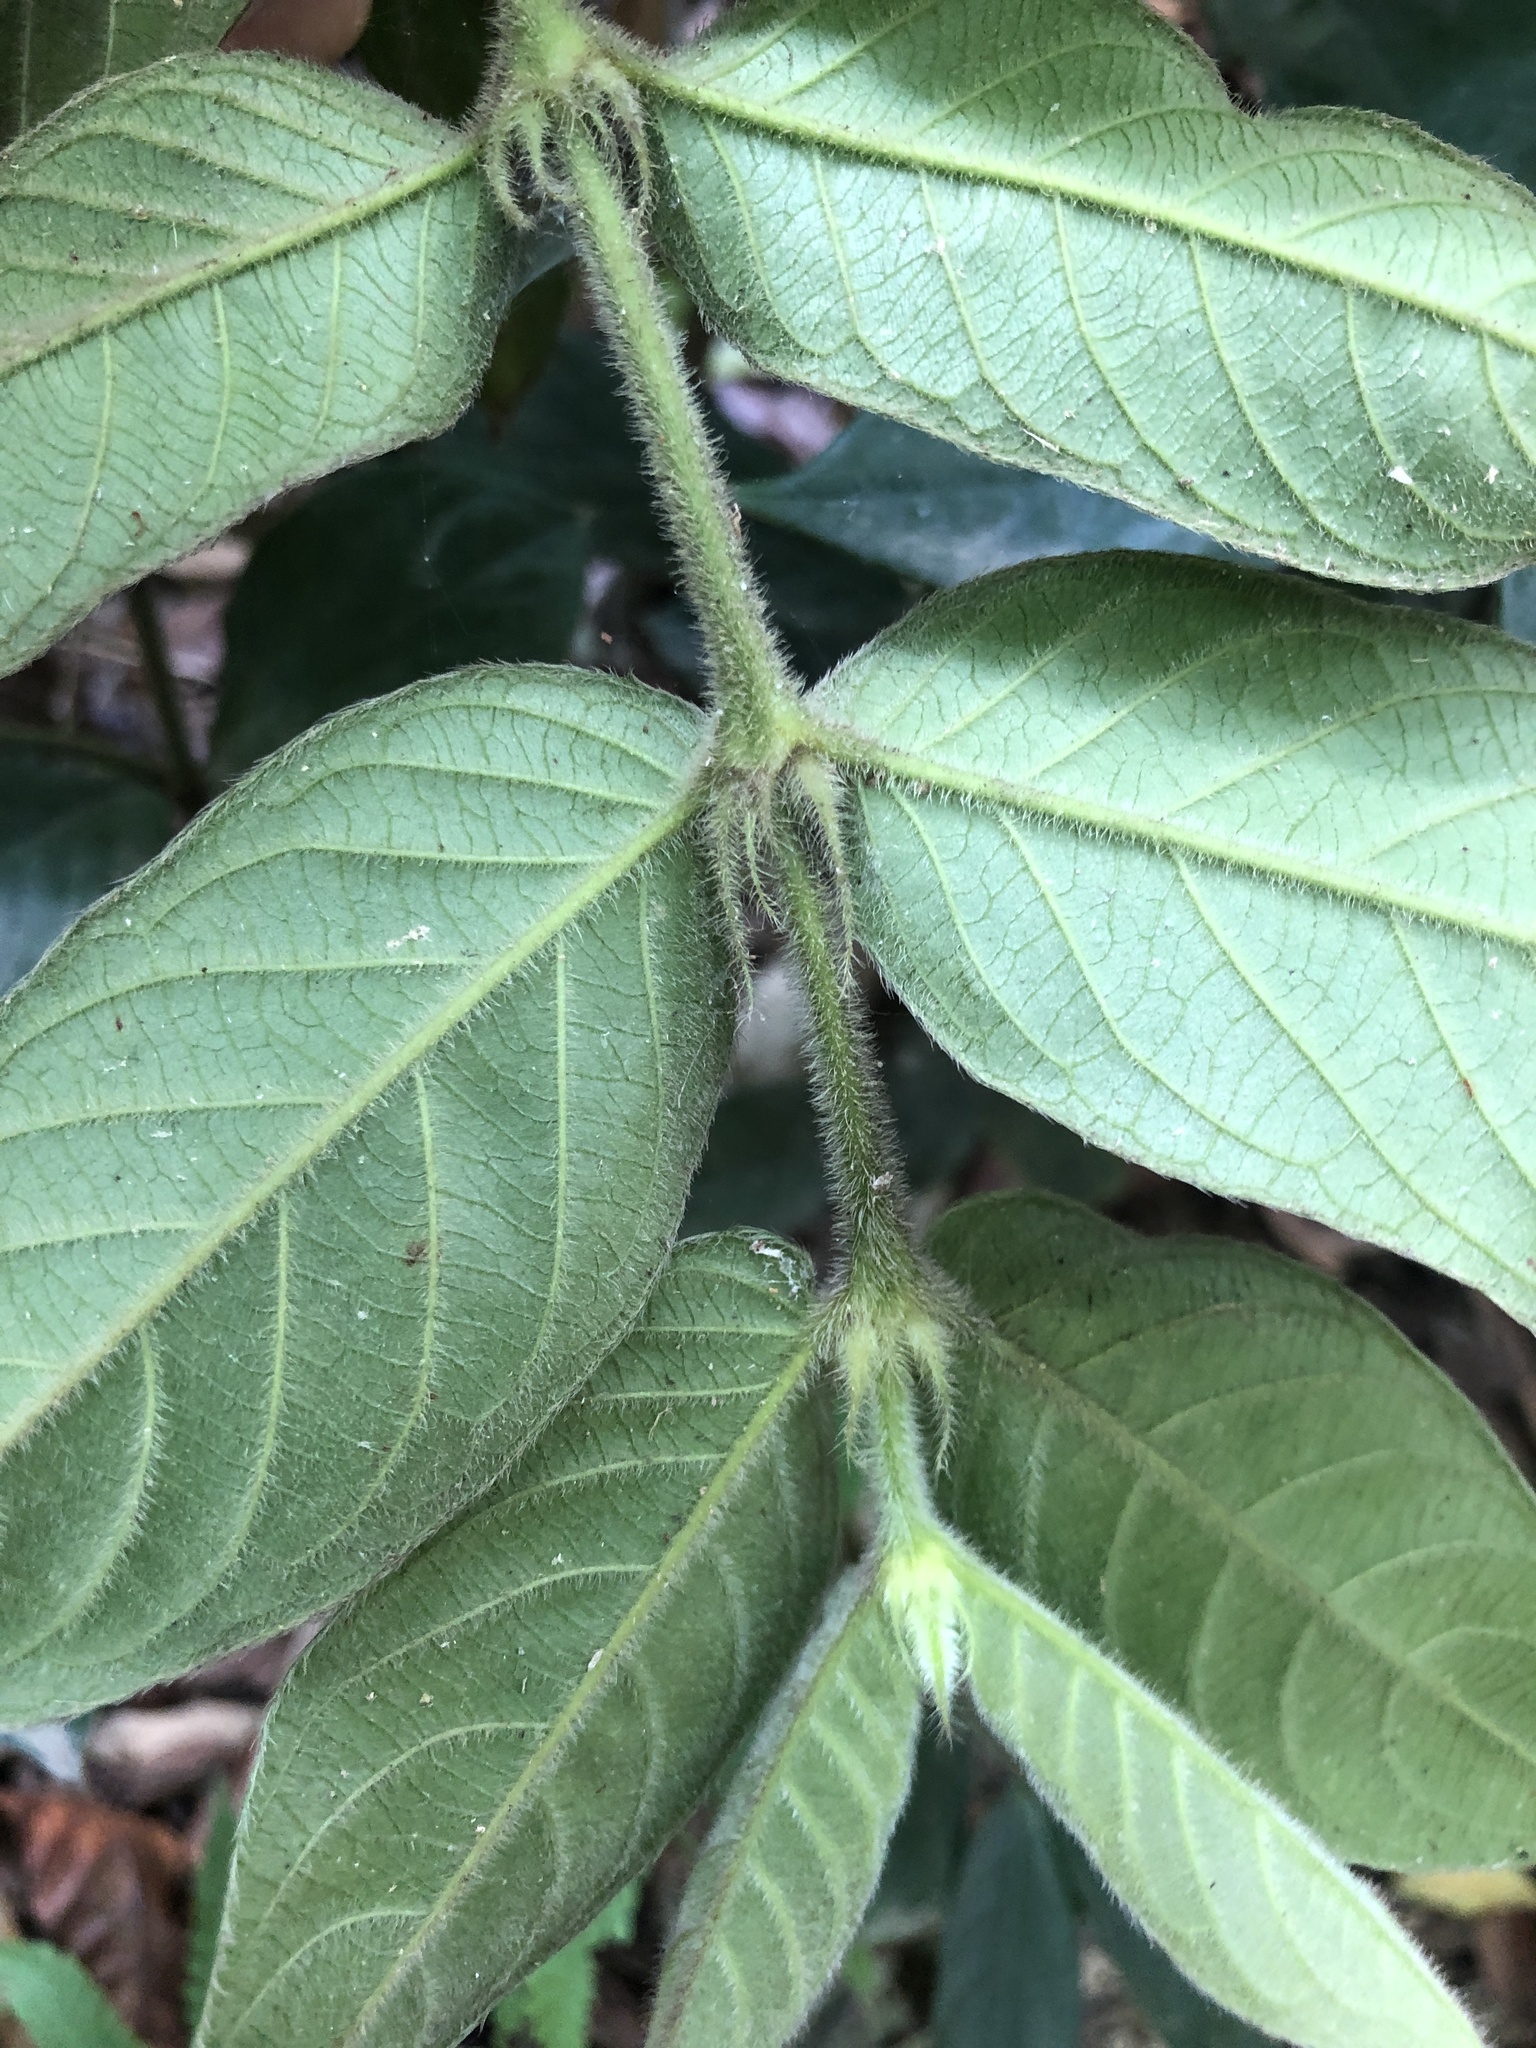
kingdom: Plantae
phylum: Tracheophyta
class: Magnoliopsida
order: Gentianales
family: Rubiaceae
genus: Lasianthus
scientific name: Lasianthus attenuatus
